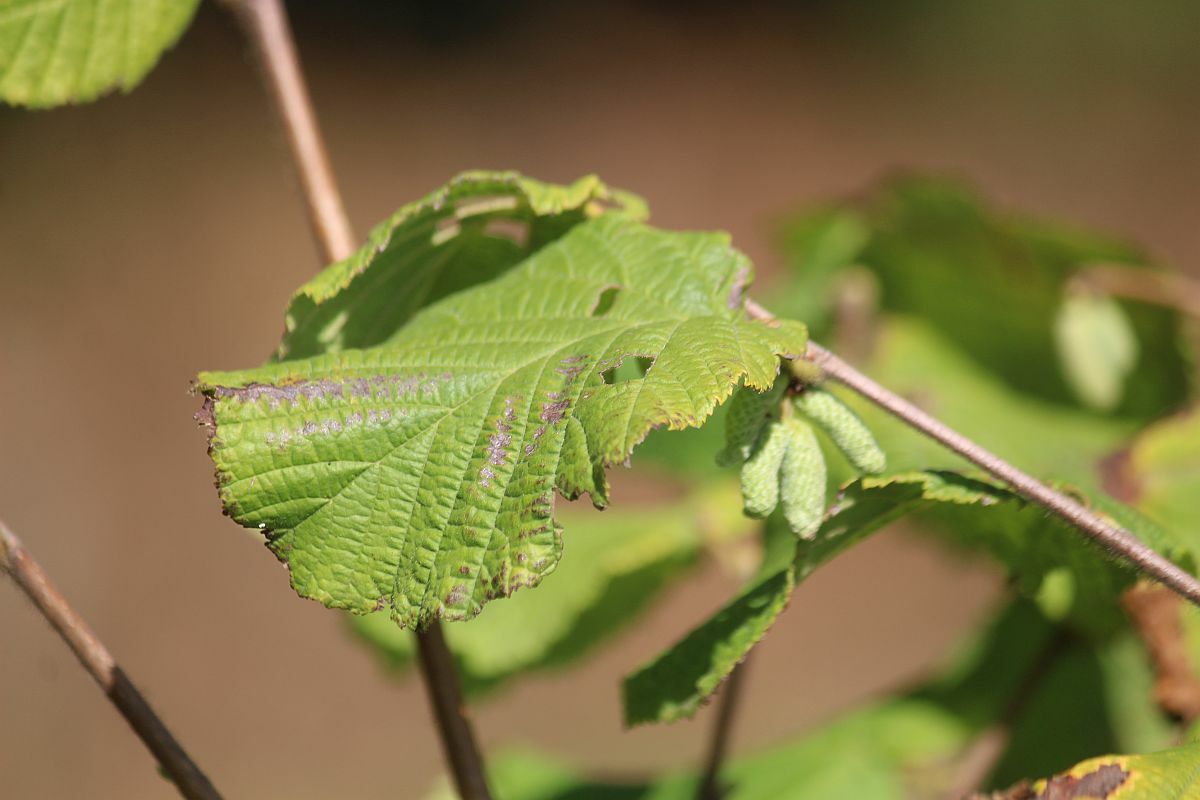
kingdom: Plantae
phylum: Tracheophyta
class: Magnoliopsida
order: Fagales
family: Betulaceae
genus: Corylus
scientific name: Corylus avellana
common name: European hazel
